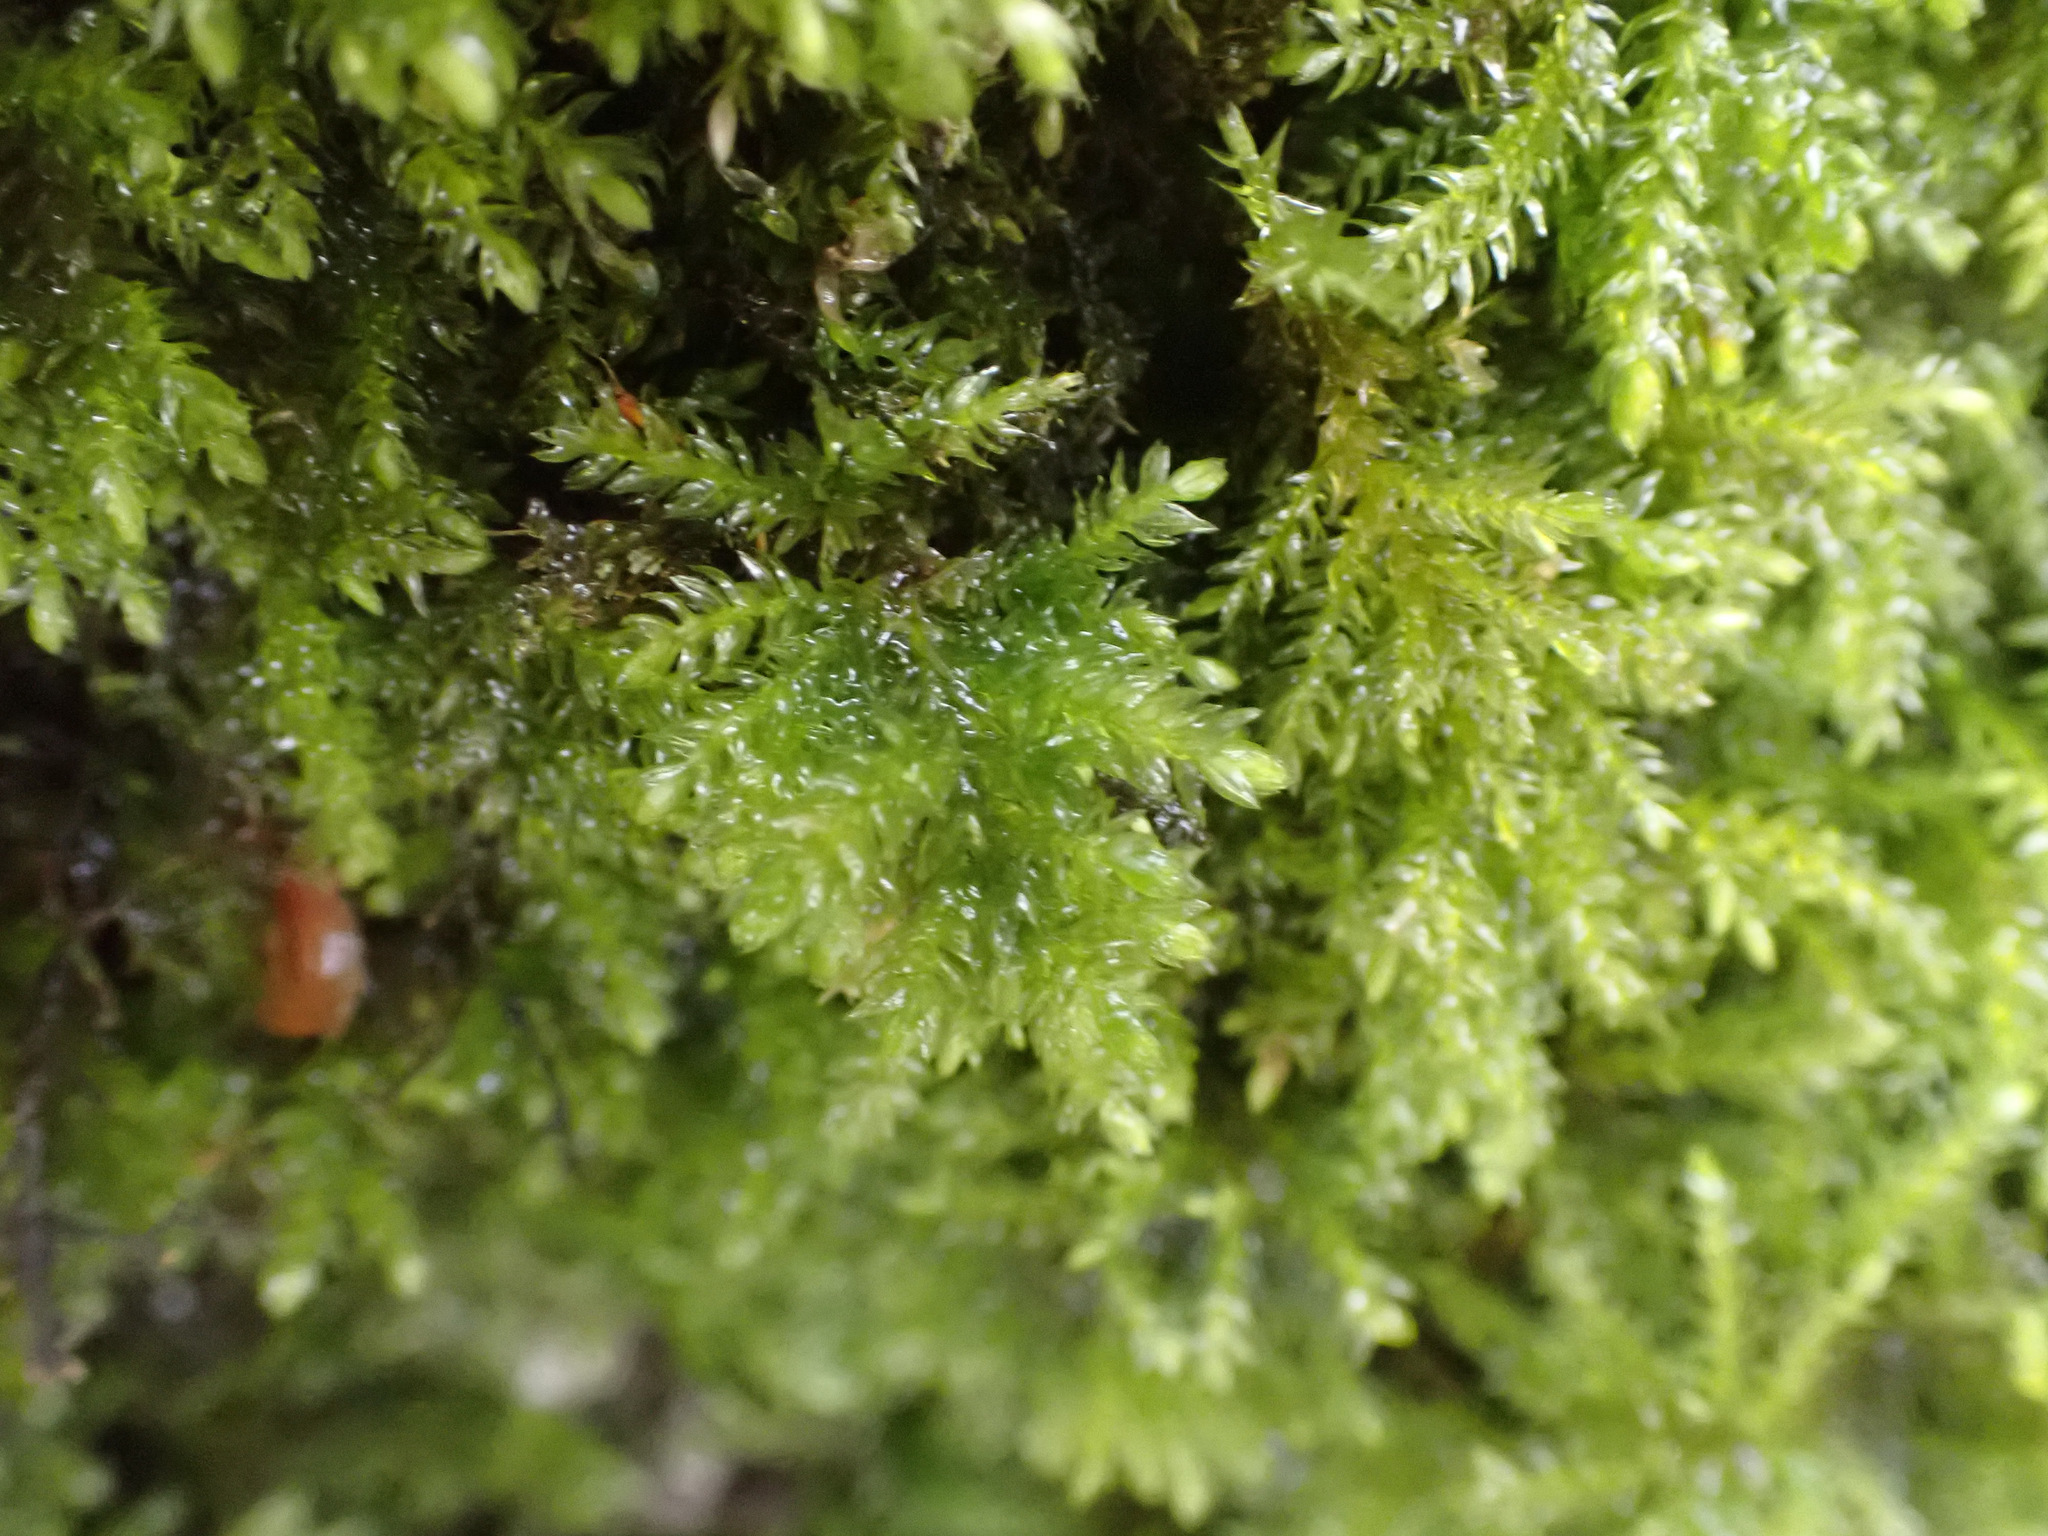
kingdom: Plantae
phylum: Bryophyta
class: Bryopsida
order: Hypnales
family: Neckeraceae
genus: Thamnobryum
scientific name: Thamnobryum alopecurum
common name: Fox-tail feather-moss
